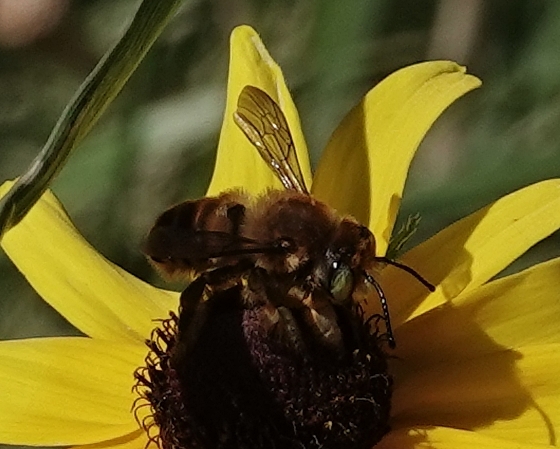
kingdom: Animalia
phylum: Arthropoda
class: Insecta
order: Hymenoptera
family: Megachilidae
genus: Megachile
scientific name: Megachile fortis
